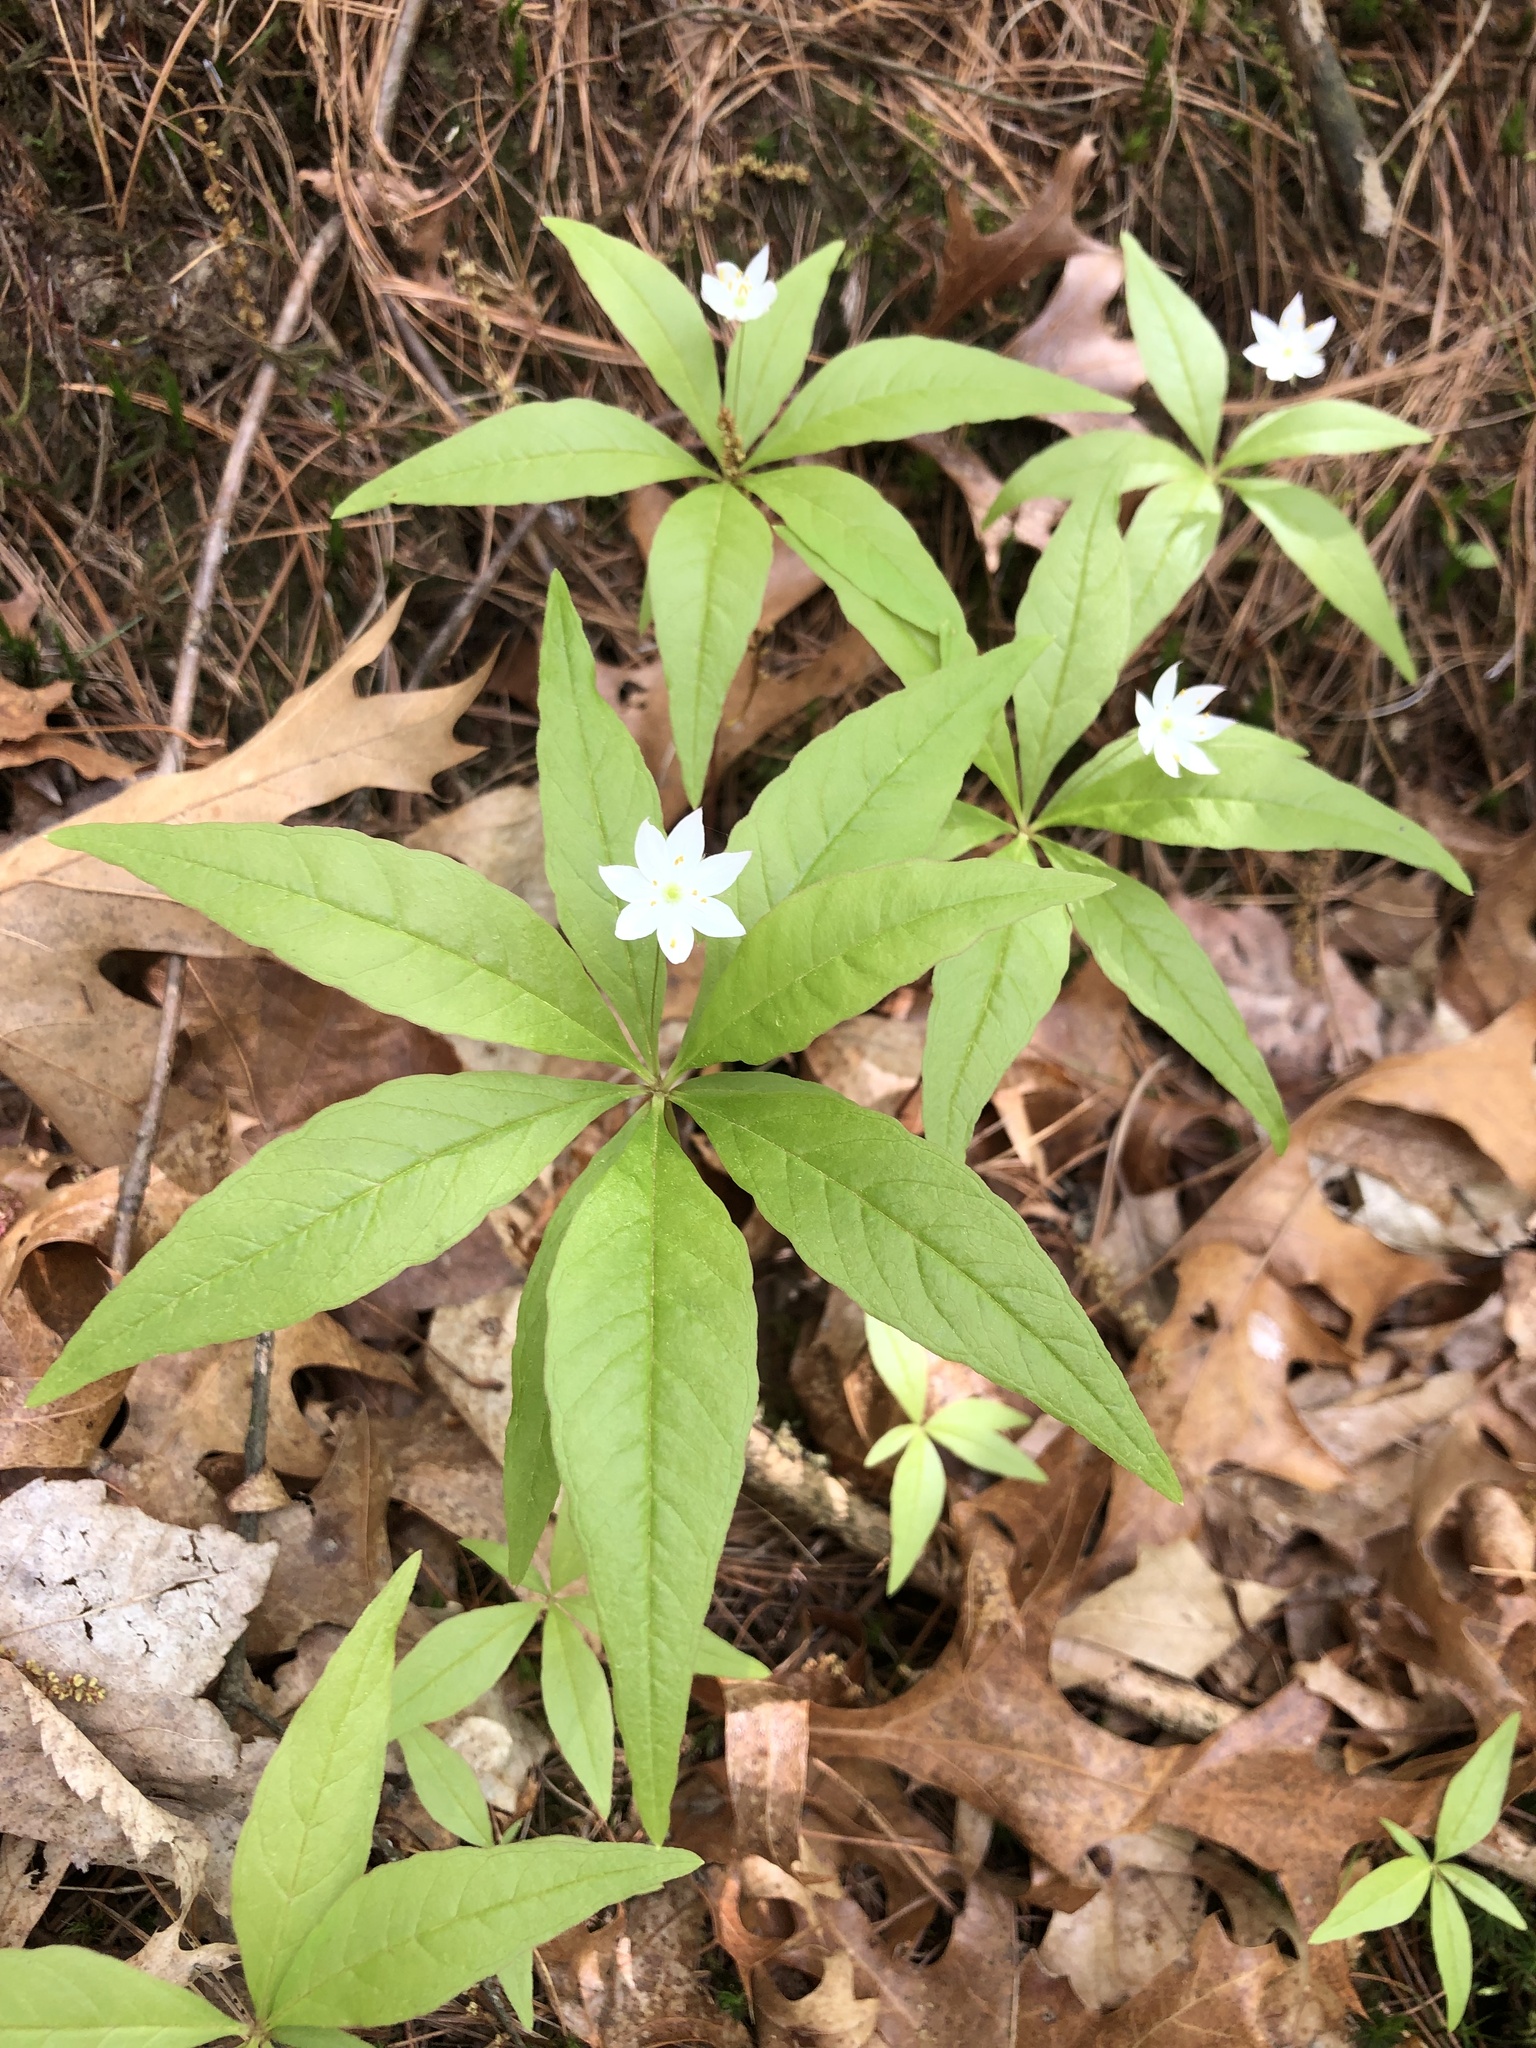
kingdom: Plantae
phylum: Tracheophyta
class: Magnoliopsida
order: Ericales
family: Primulaceae
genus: Lysimachia
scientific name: Lysimachia borealis
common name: American starflower
